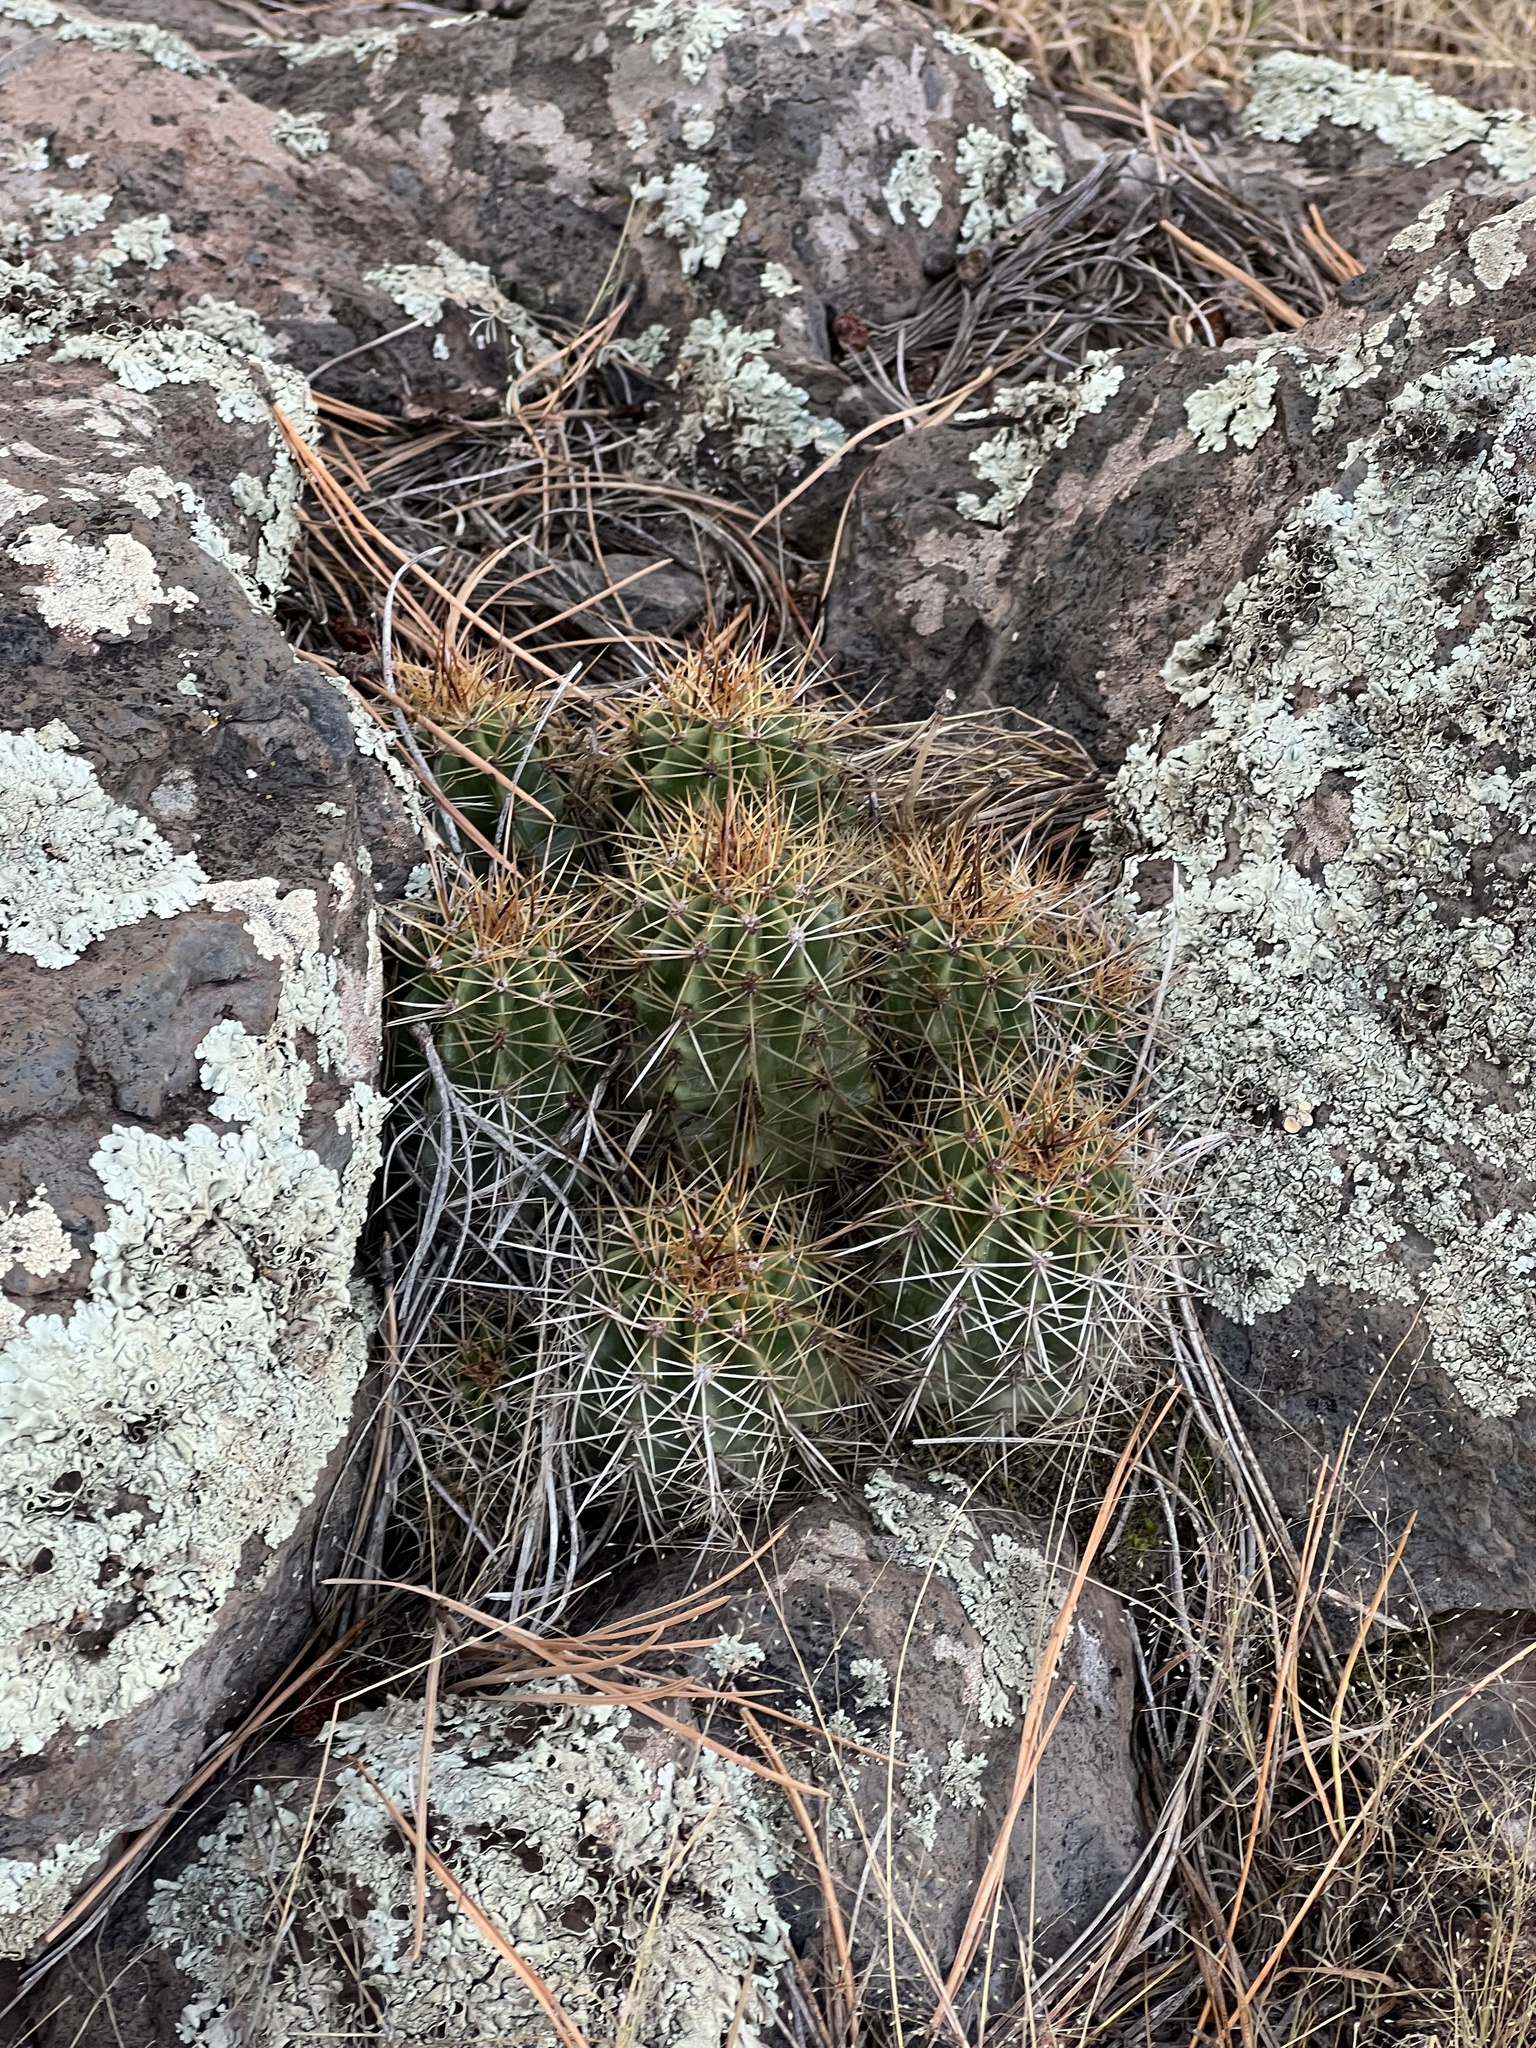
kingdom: Plantae
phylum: Tracheophyta
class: Magnoliopsida
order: Caryophyllales
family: Cactaceae
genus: Echinocereus
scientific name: Echinocereus bakeri
